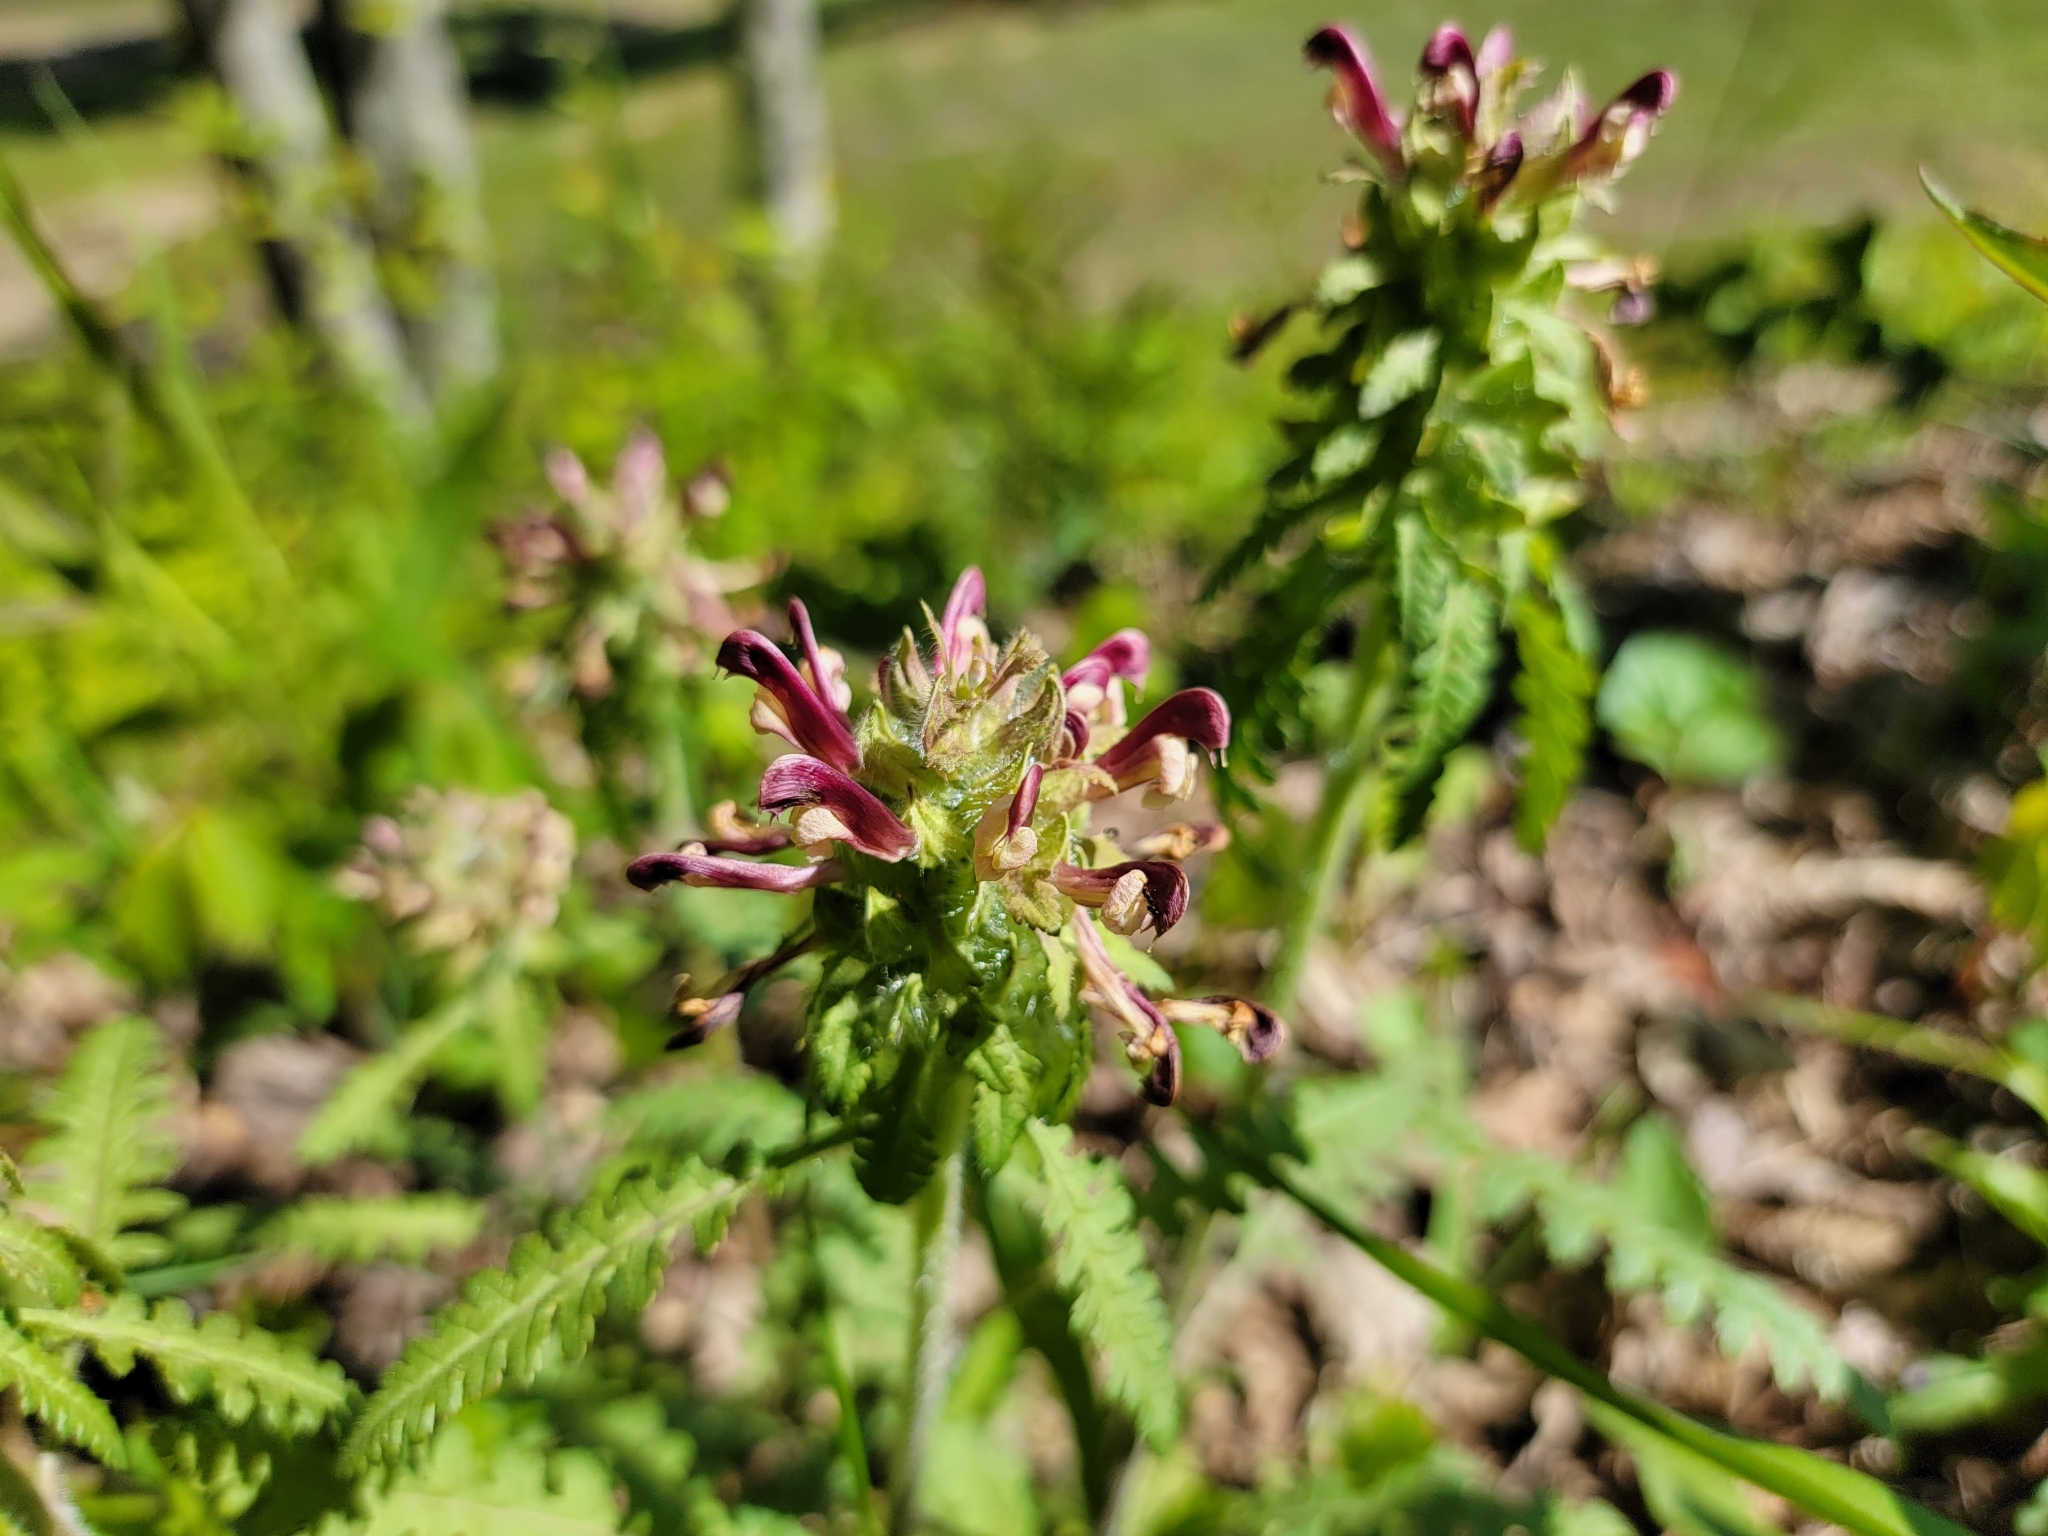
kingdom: Plantae
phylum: Tracheophyta
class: Magnoliopsida
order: Lamiales
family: Orobanchaceae
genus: Pedicularis
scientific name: Pedicularis canadensis
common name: Early lousewort
